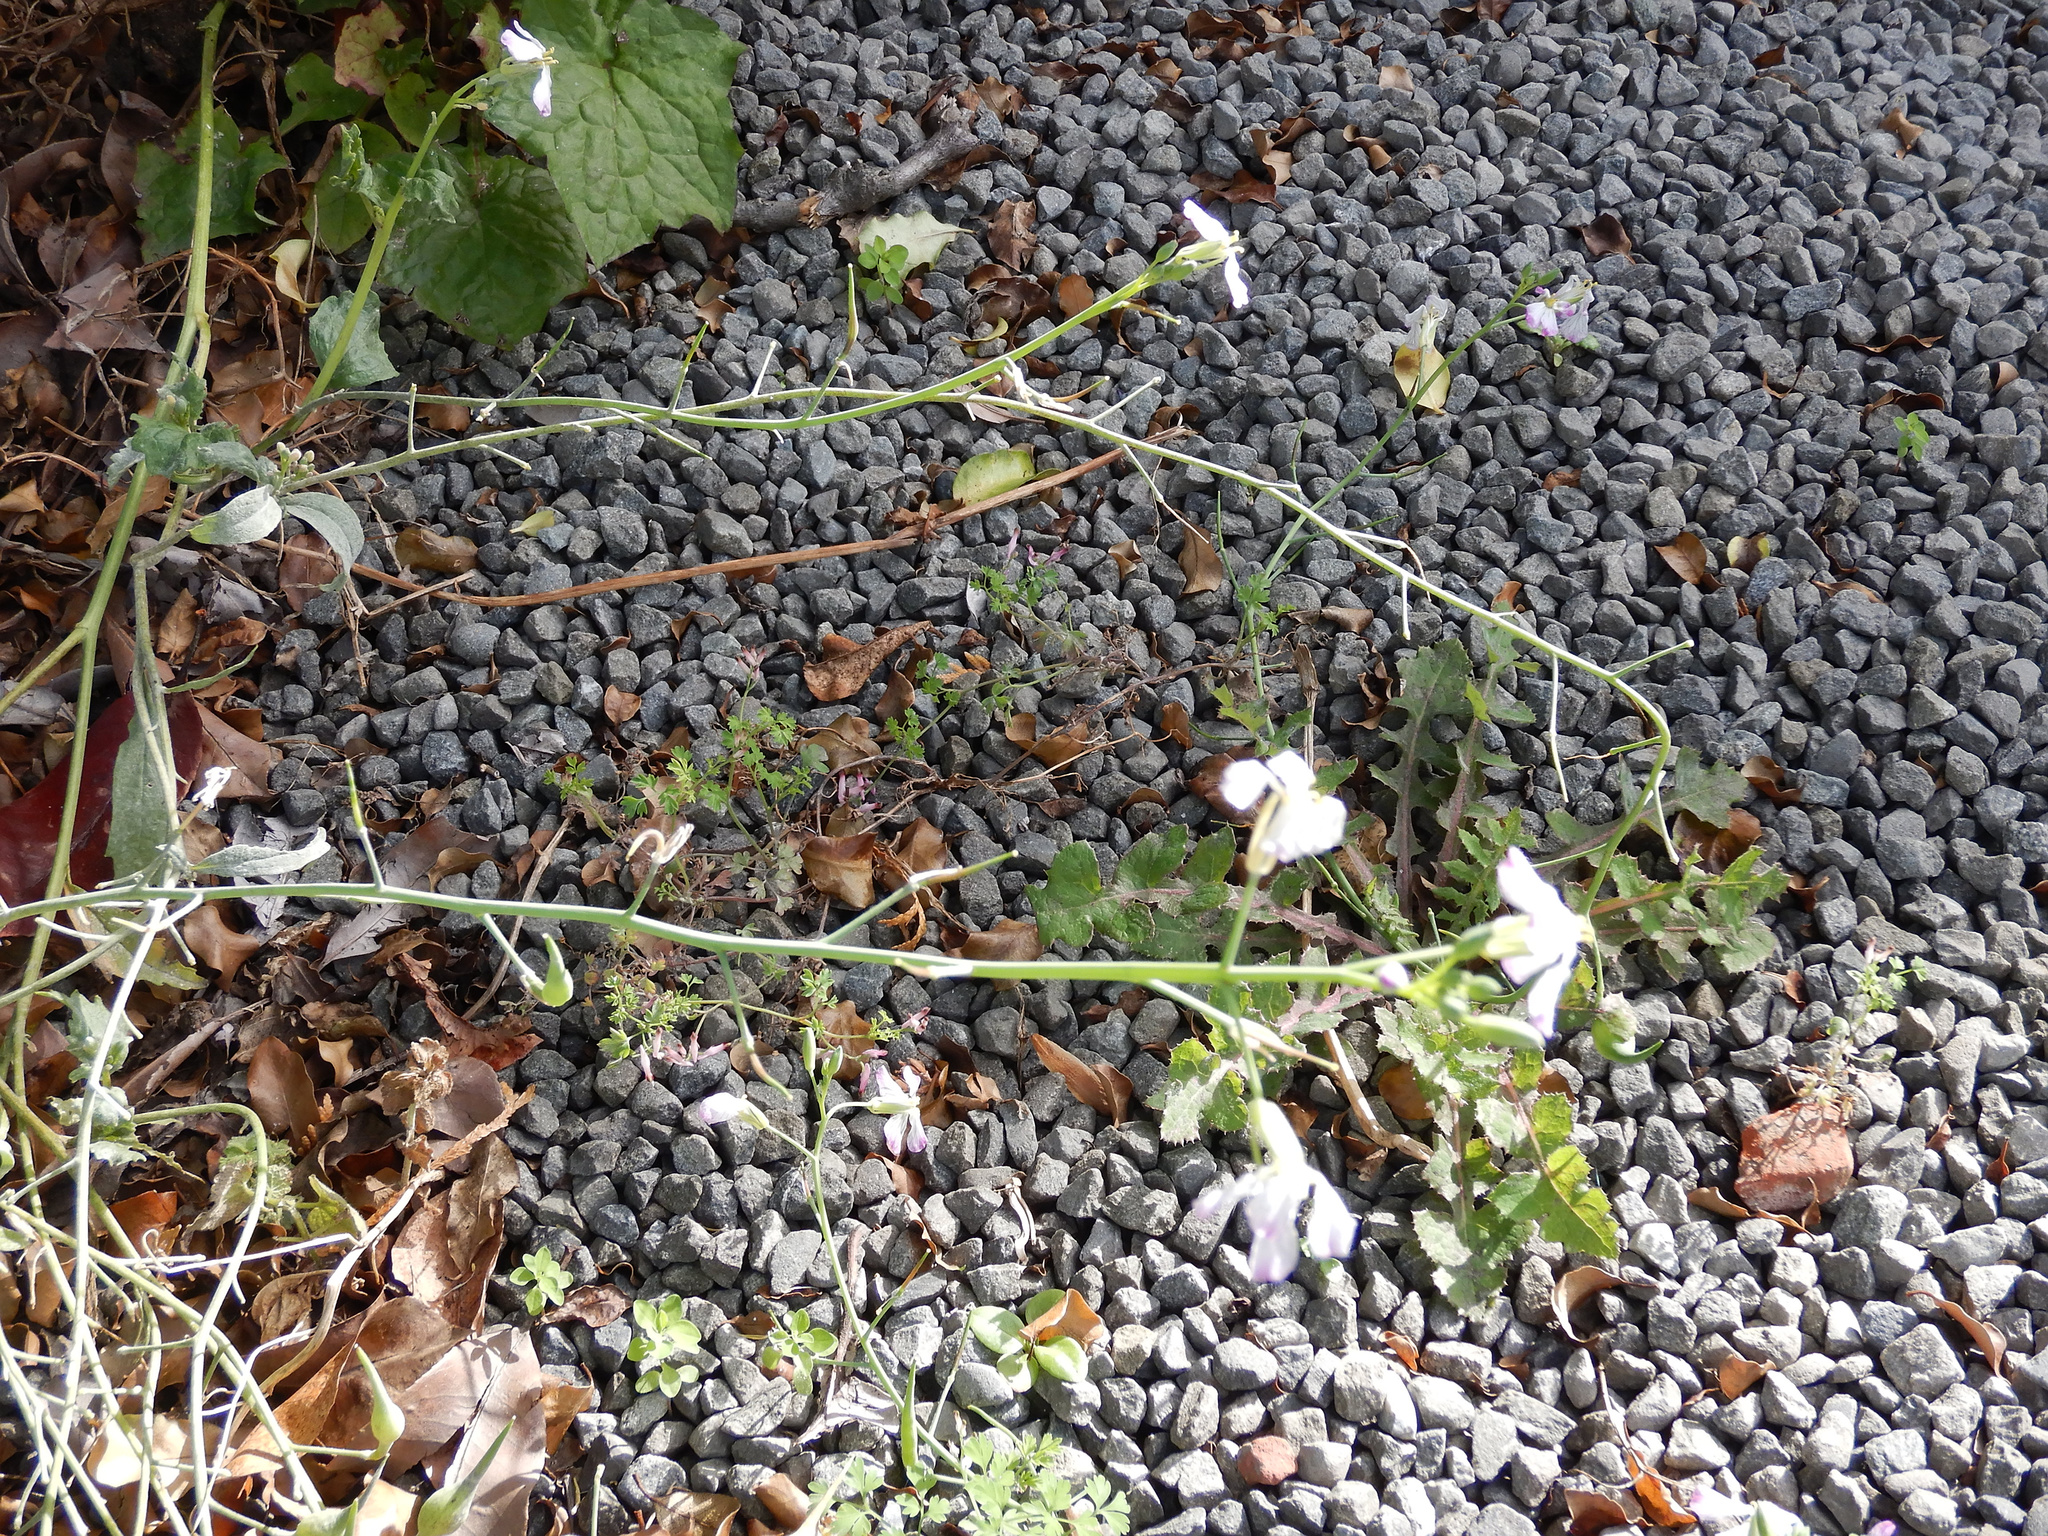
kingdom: Plantae
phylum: Tracheophyta
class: Magnoliopsida
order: Brassicales
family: Brassicaceae
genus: Raphanus
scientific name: Raphanus sativus
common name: Cultivated radish
